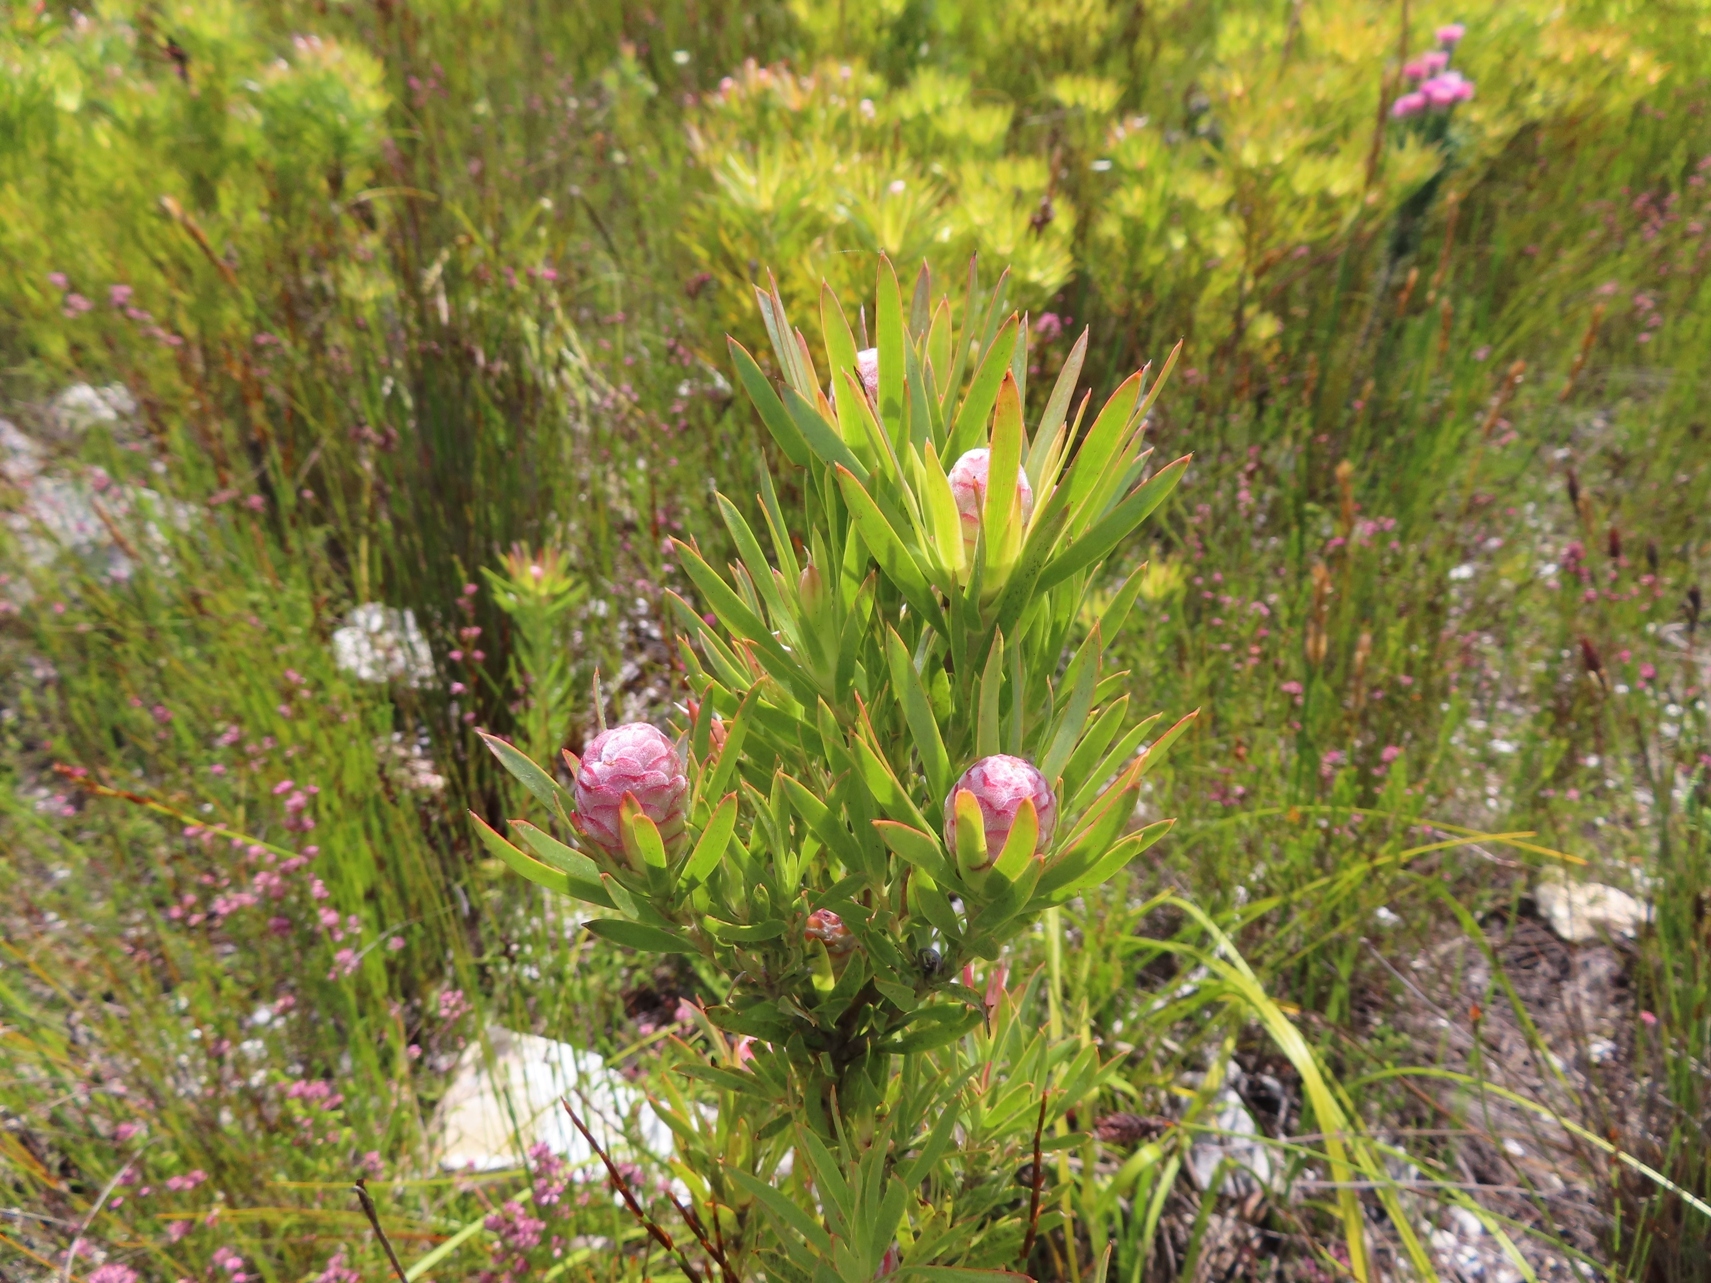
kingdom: Plantae
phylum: Tracheophyta
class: Magnoliopsida
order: Proteales
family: Proteaceae
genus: Leucadendron
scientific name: Leucadendron xanthoconus
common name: Sickle-leaf conebush
